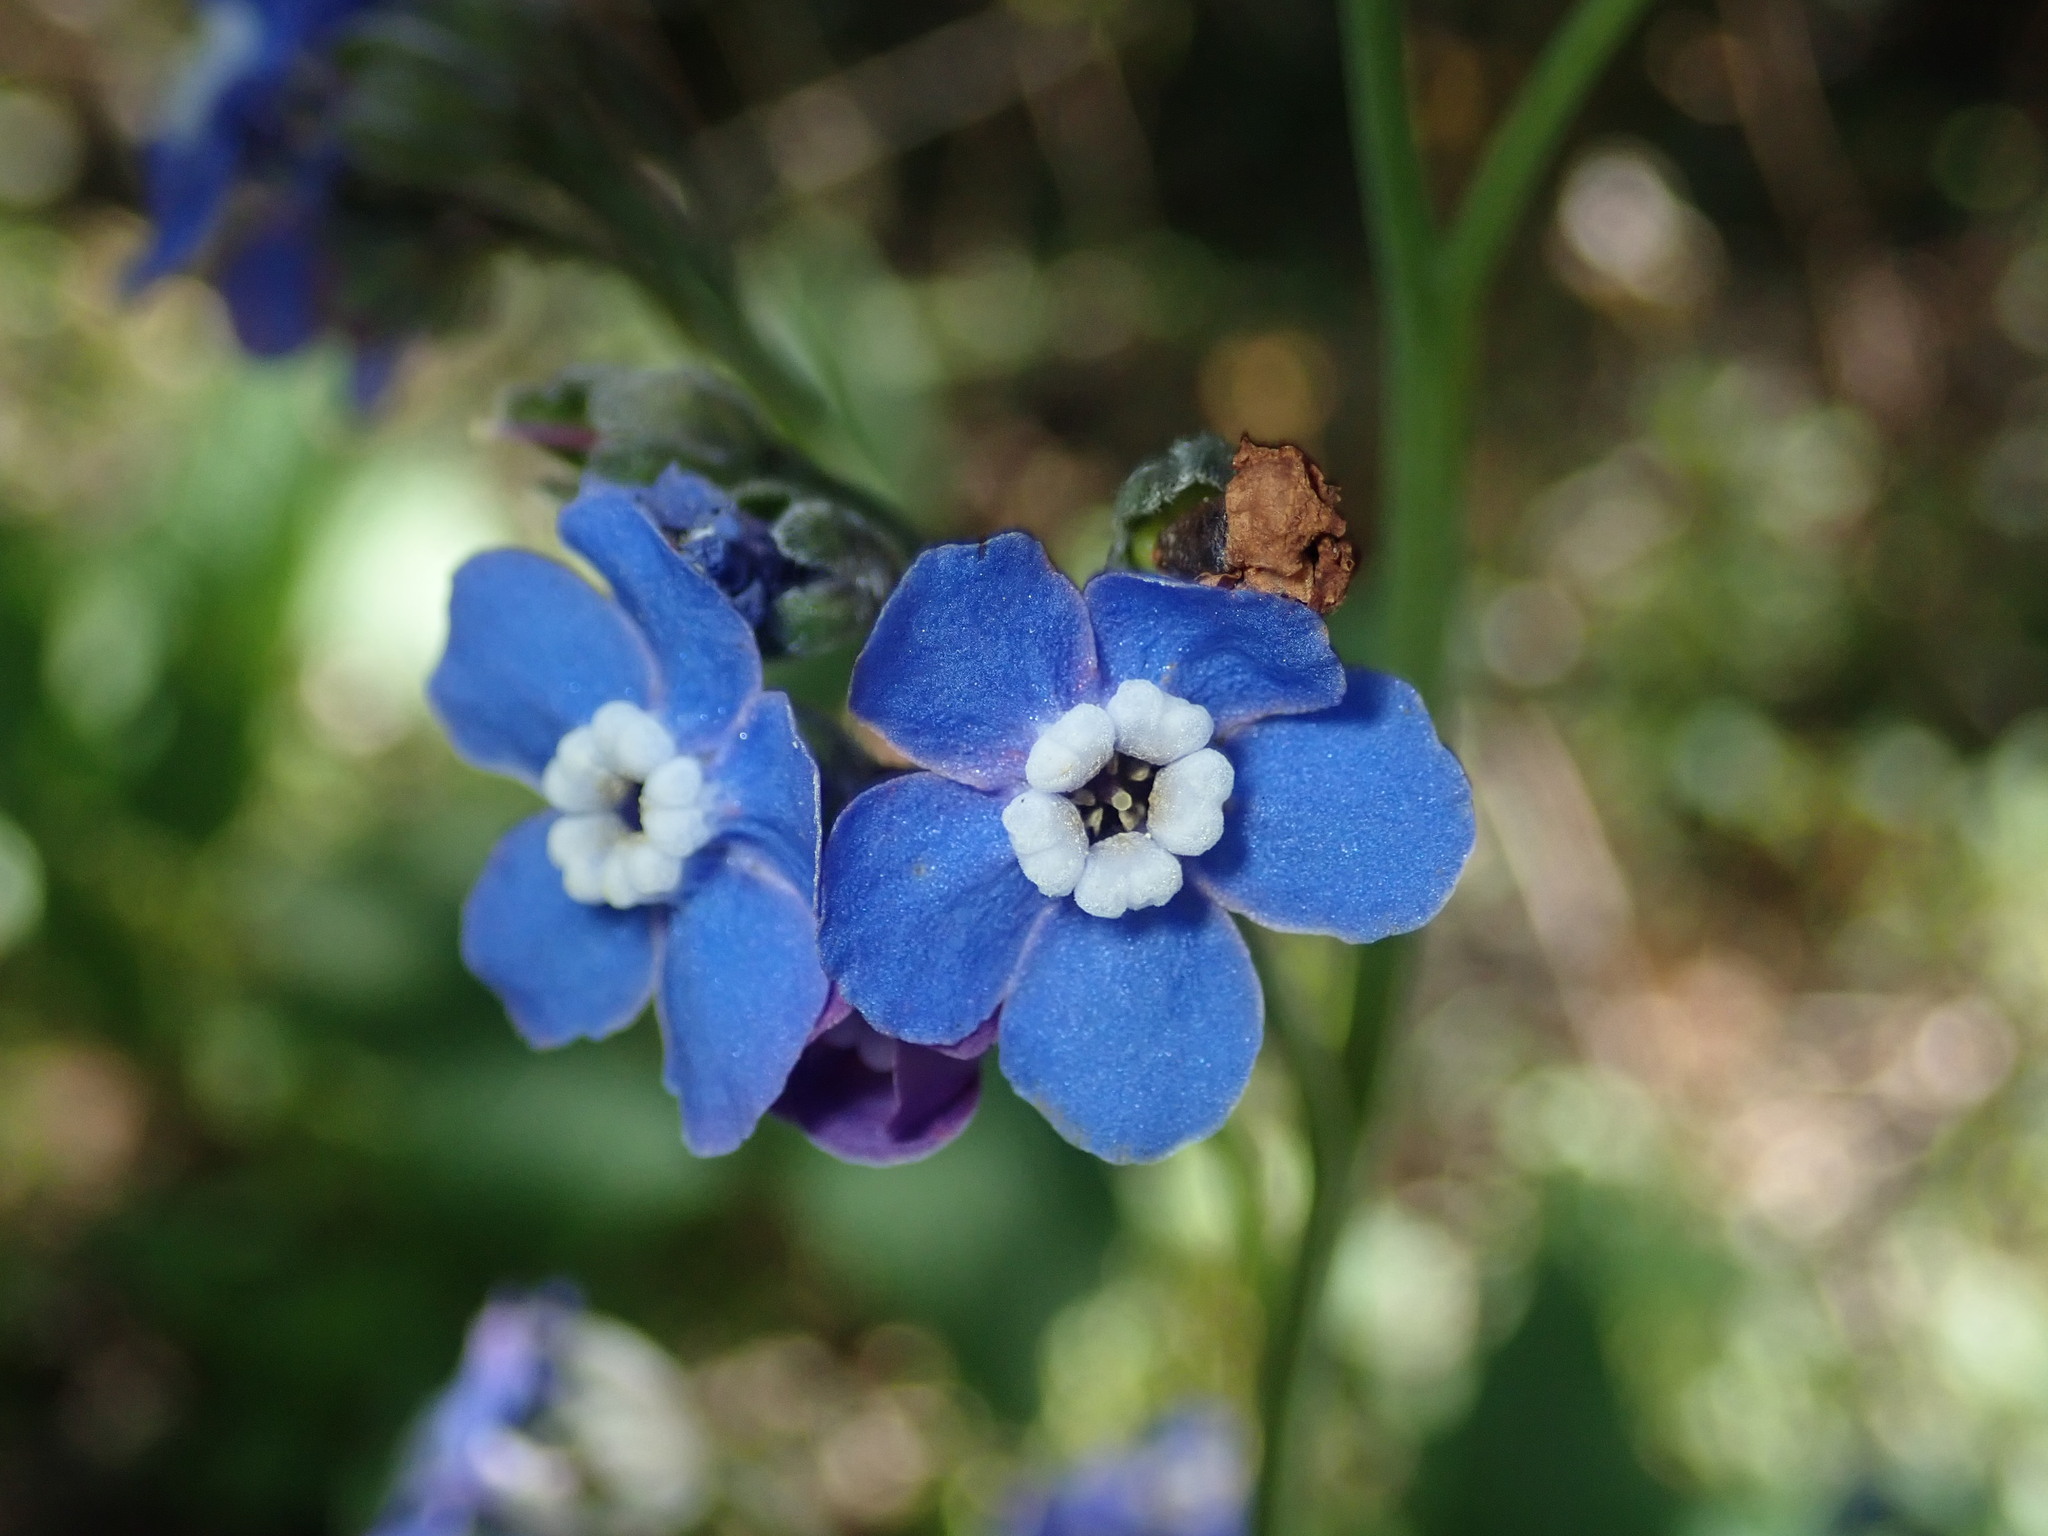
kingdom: Plantae
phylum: Tracheophyta
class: Magnoliopsida
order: Boraginales
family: Boraginaceae
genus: Adelinia
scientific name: Adelinia grande
